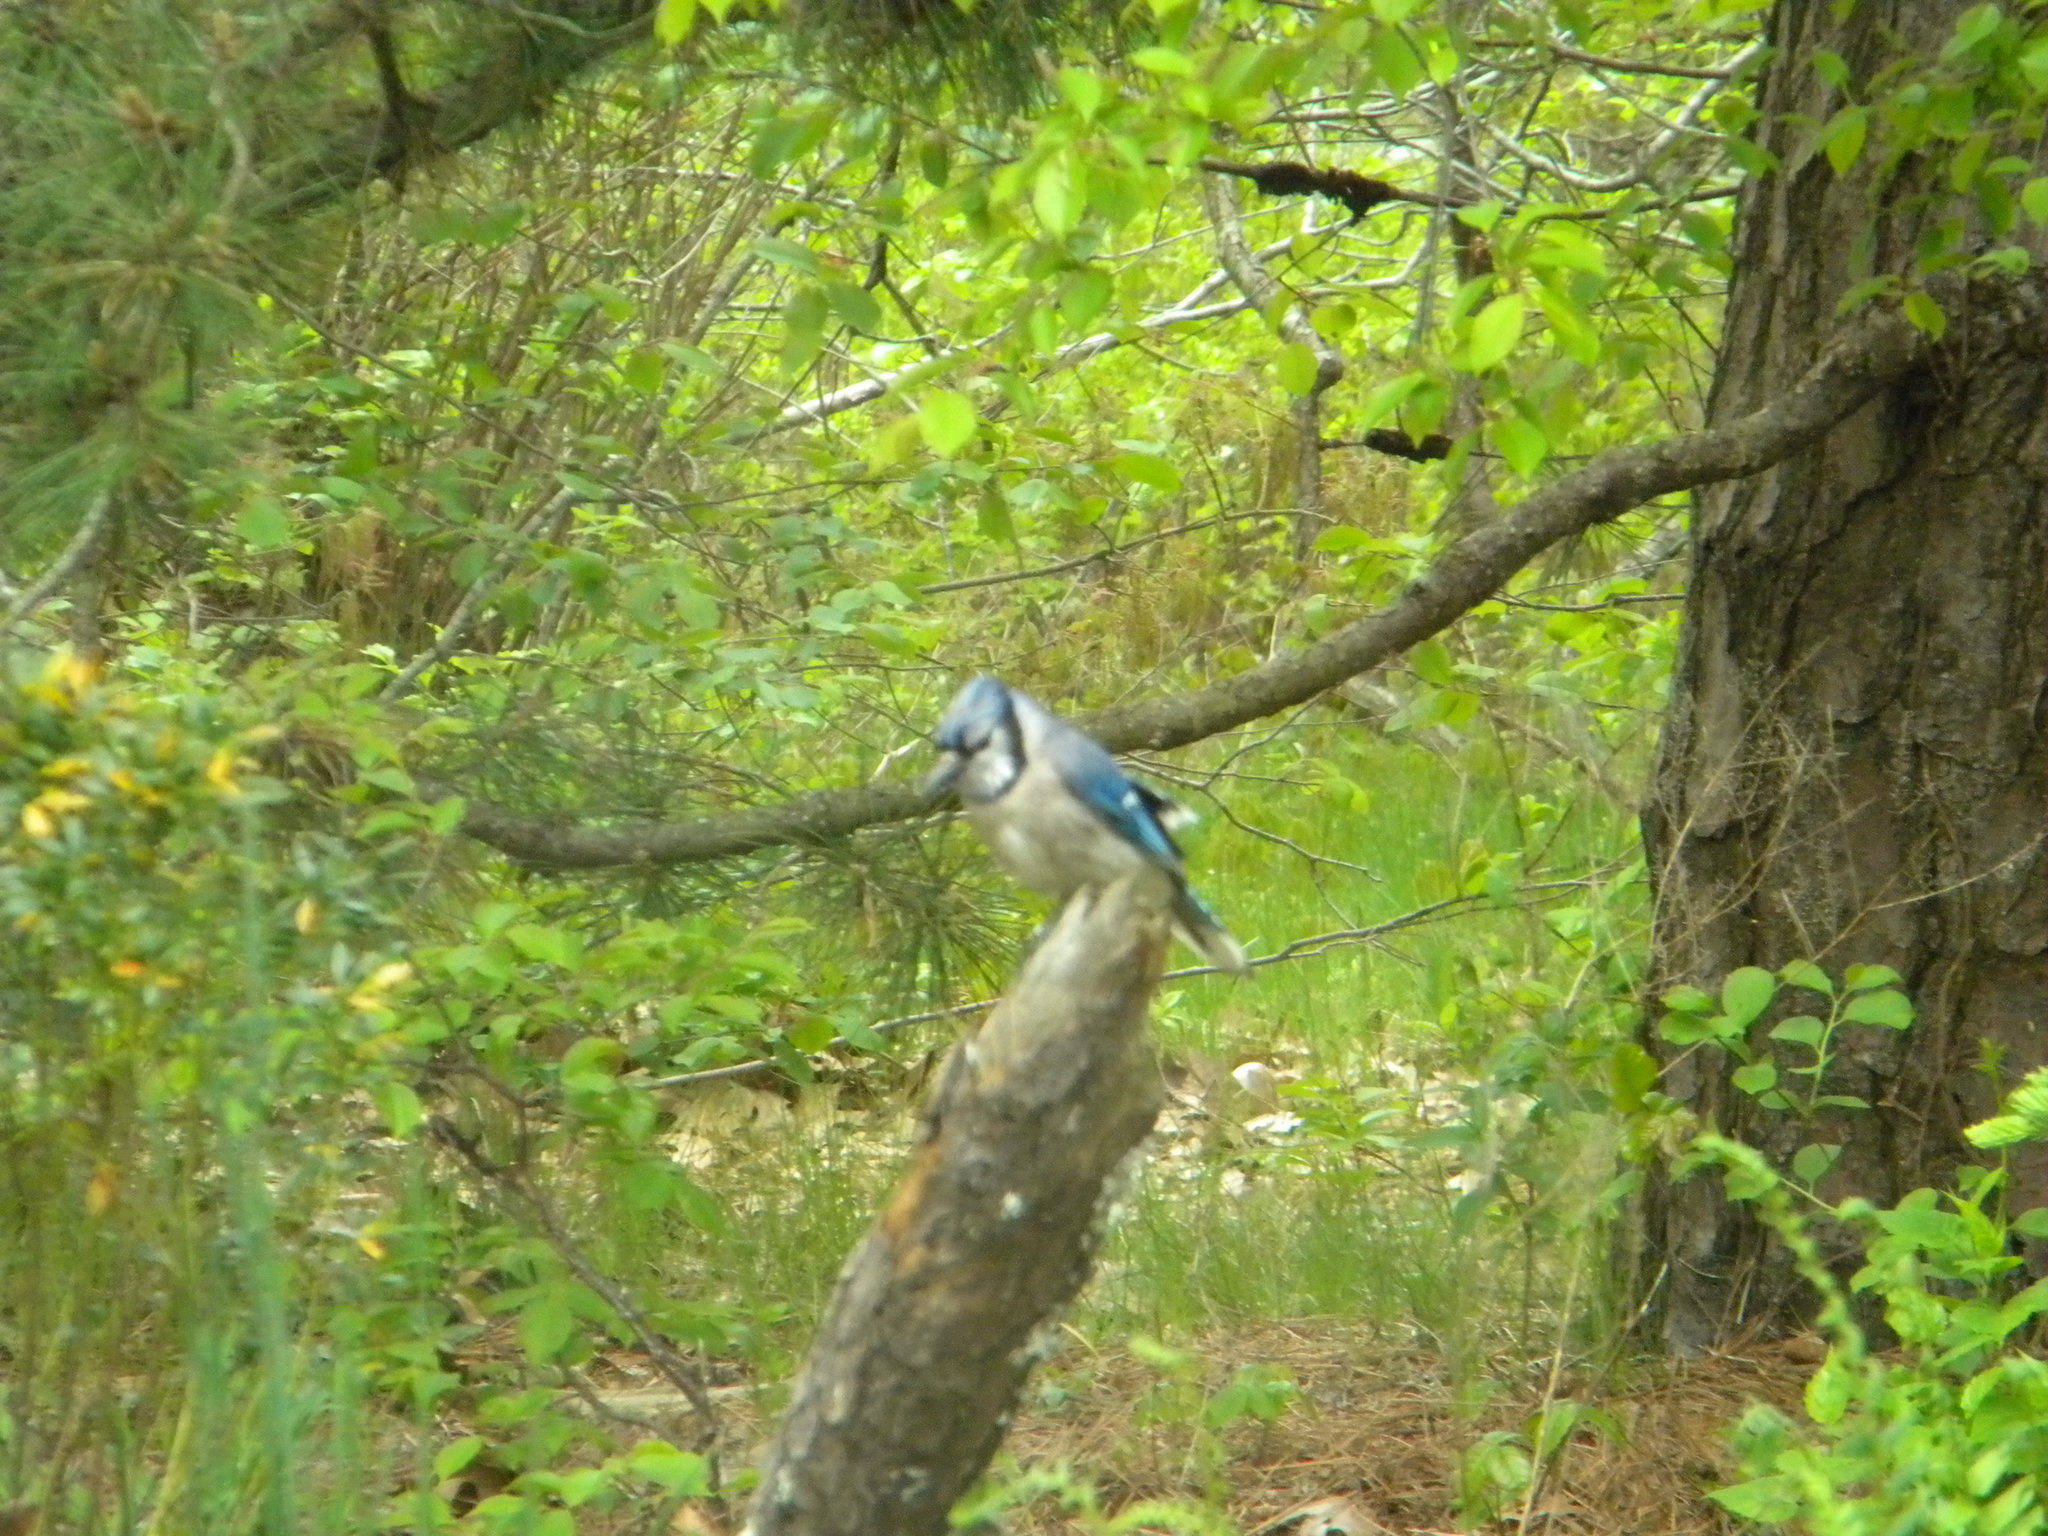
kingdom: Animalia
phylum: Chordata
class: Aves
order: Passeriformes
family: Corvidae
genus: Cyanocitta
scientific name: Cyanocitta cristata
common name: Blue jay
